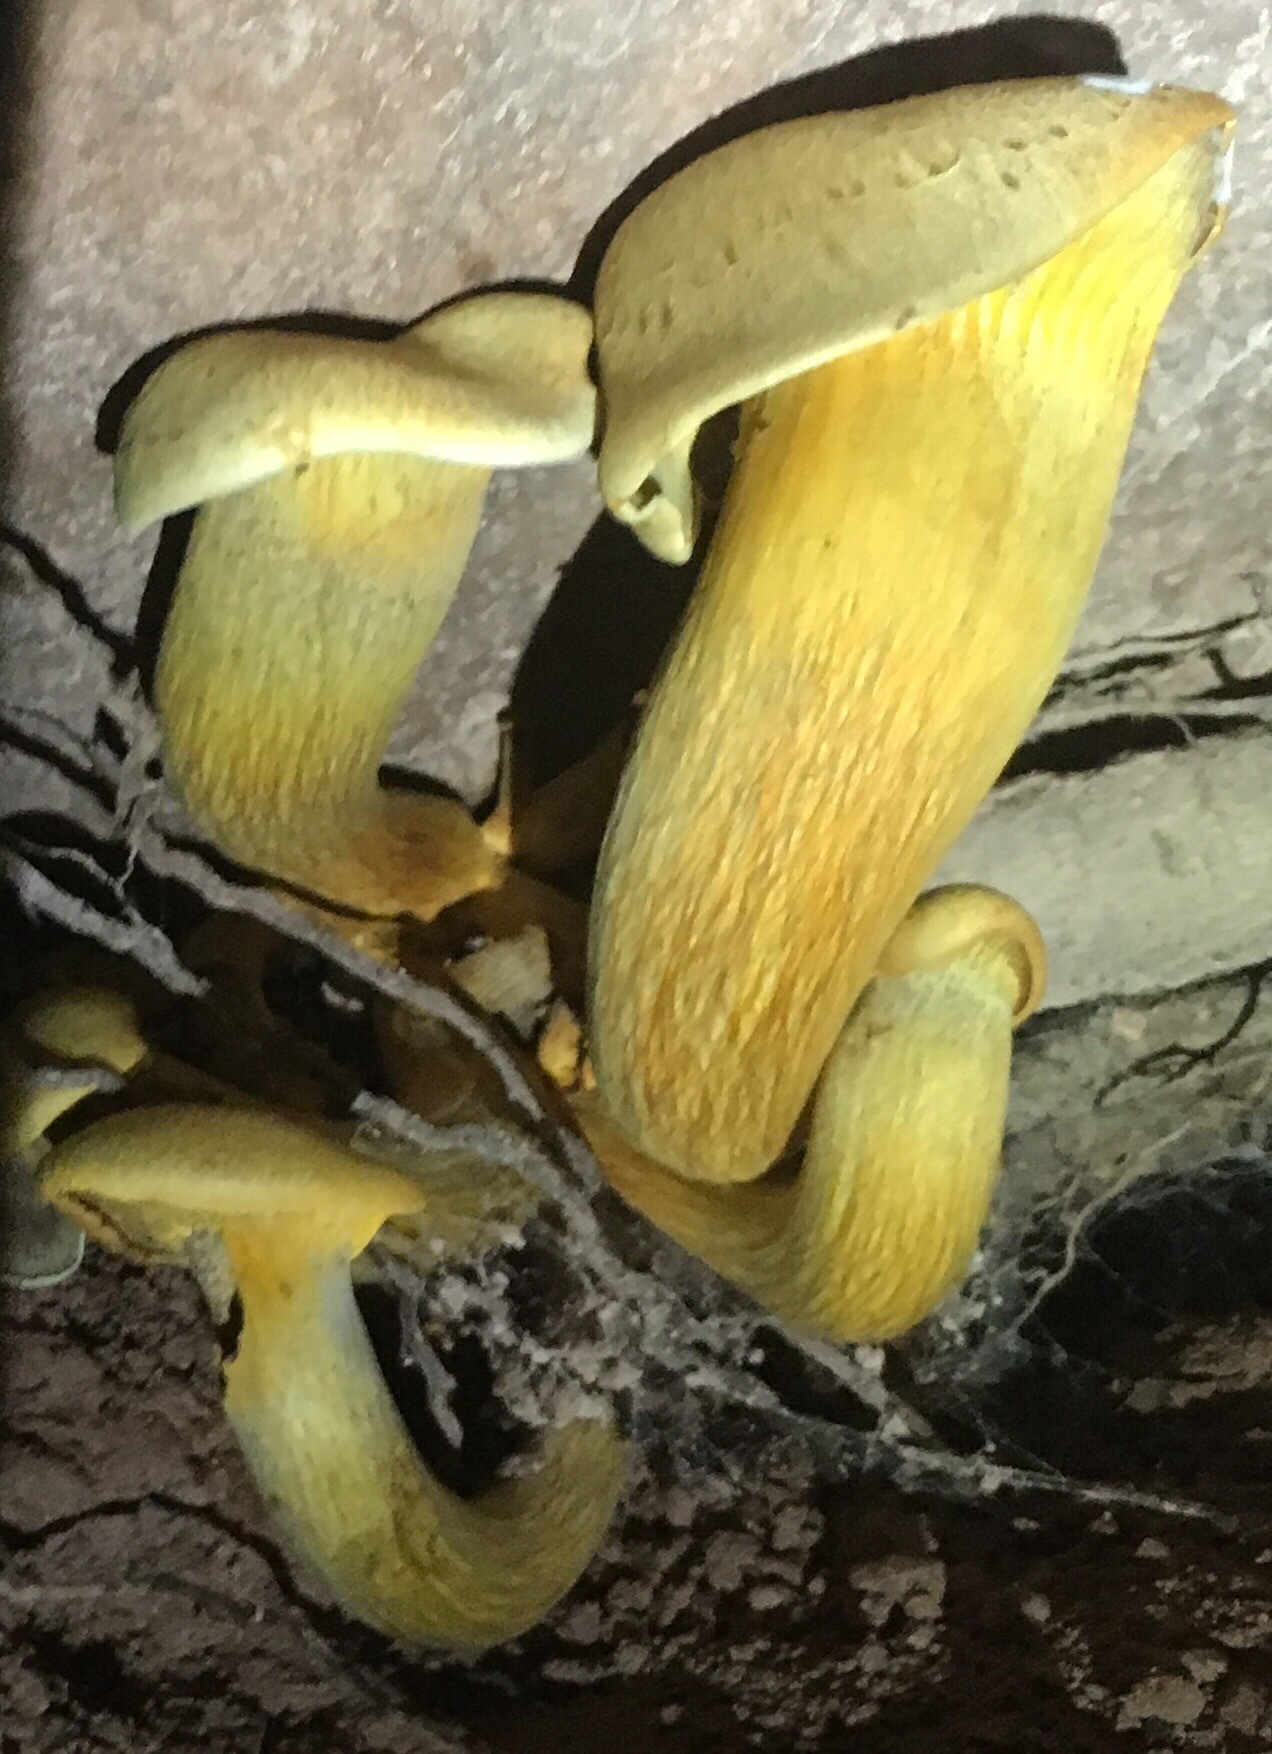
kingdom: Fungi
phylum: Basidiomycota
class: Agaricomycetes
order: Agaricales
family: Omphalotaceae
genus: Omphalotus
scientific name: Omphalotus olivascens
